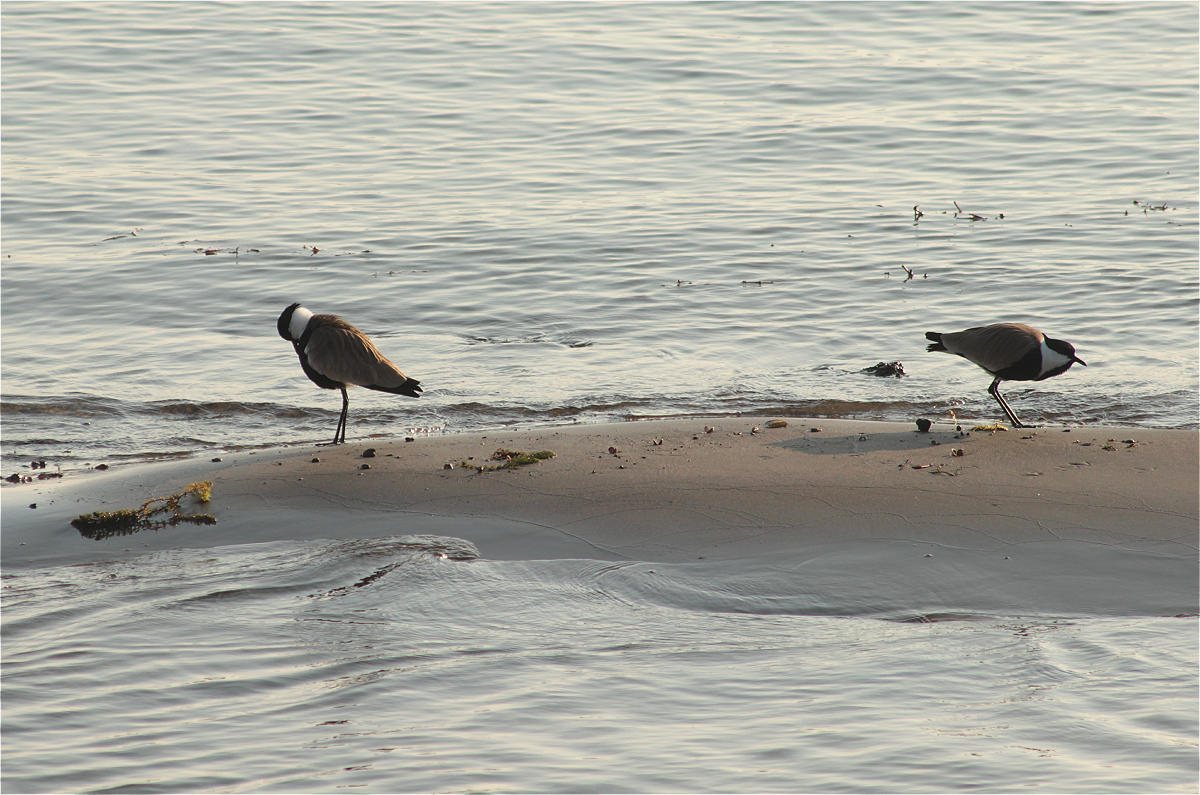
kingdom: Animalia
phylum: Chordata
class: Aves
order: Charadriiformes
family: Charadriidae
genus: Vanellus
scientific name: Vanellus spinosus
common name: Spur-winged lapwing
